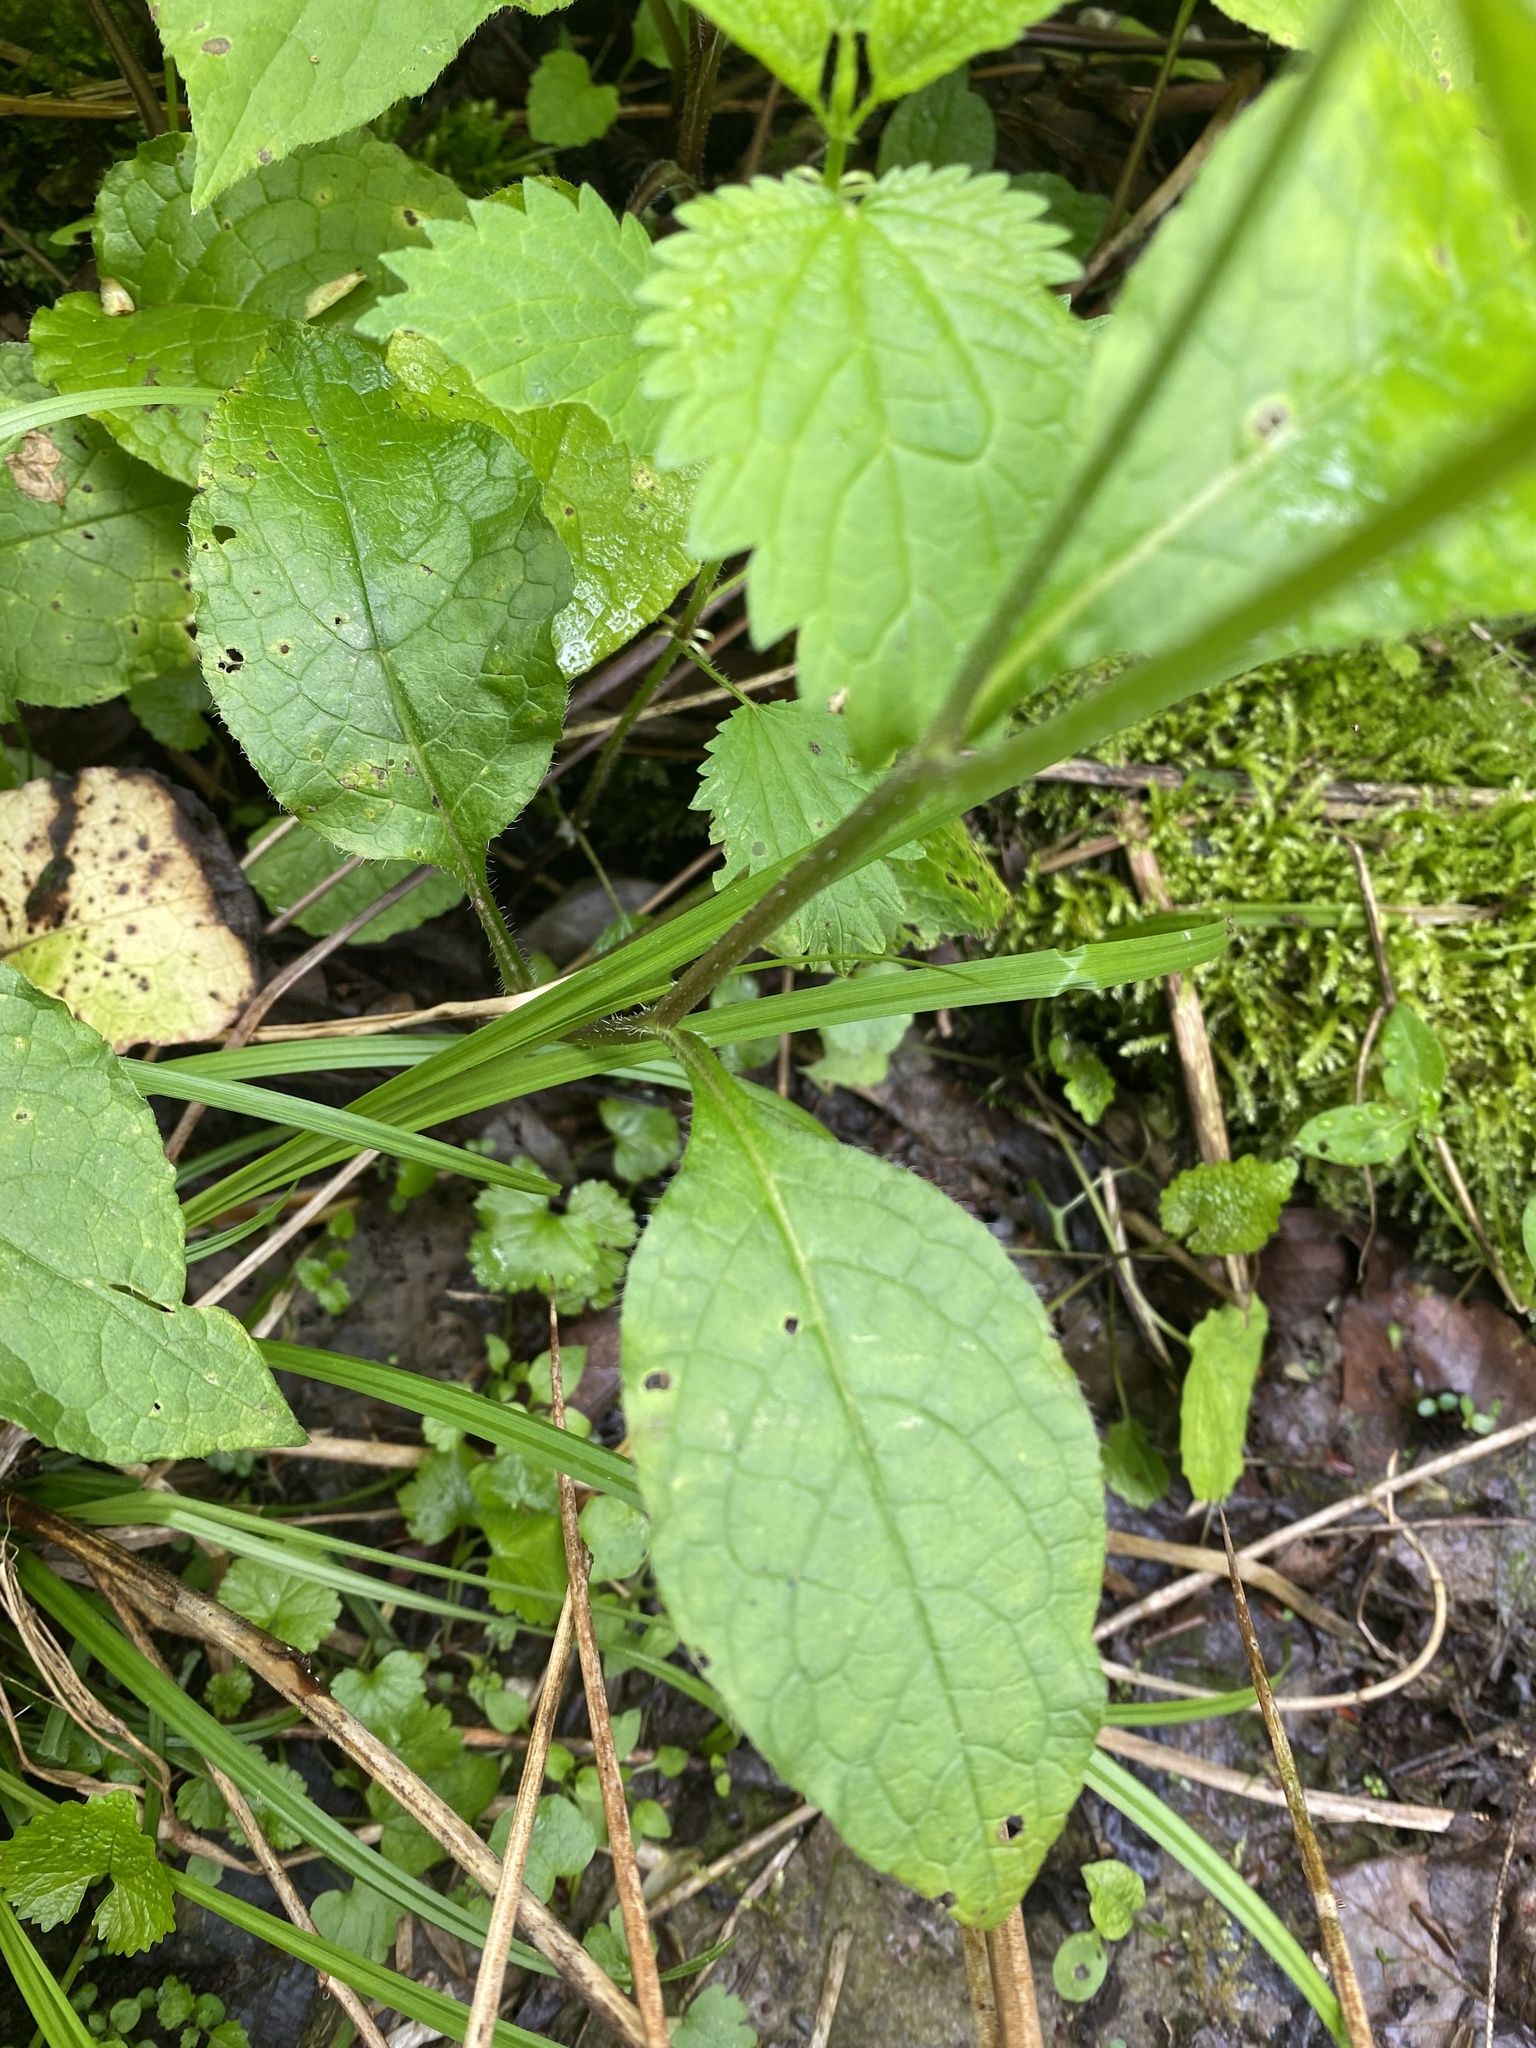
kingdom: Plantae
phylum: Tracheophyta
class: Magnoliopsida
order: Boraginales
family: Boraginaceae
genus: Symphytum
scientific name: Symphytum grandiflorum
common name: Creeping comfrey
